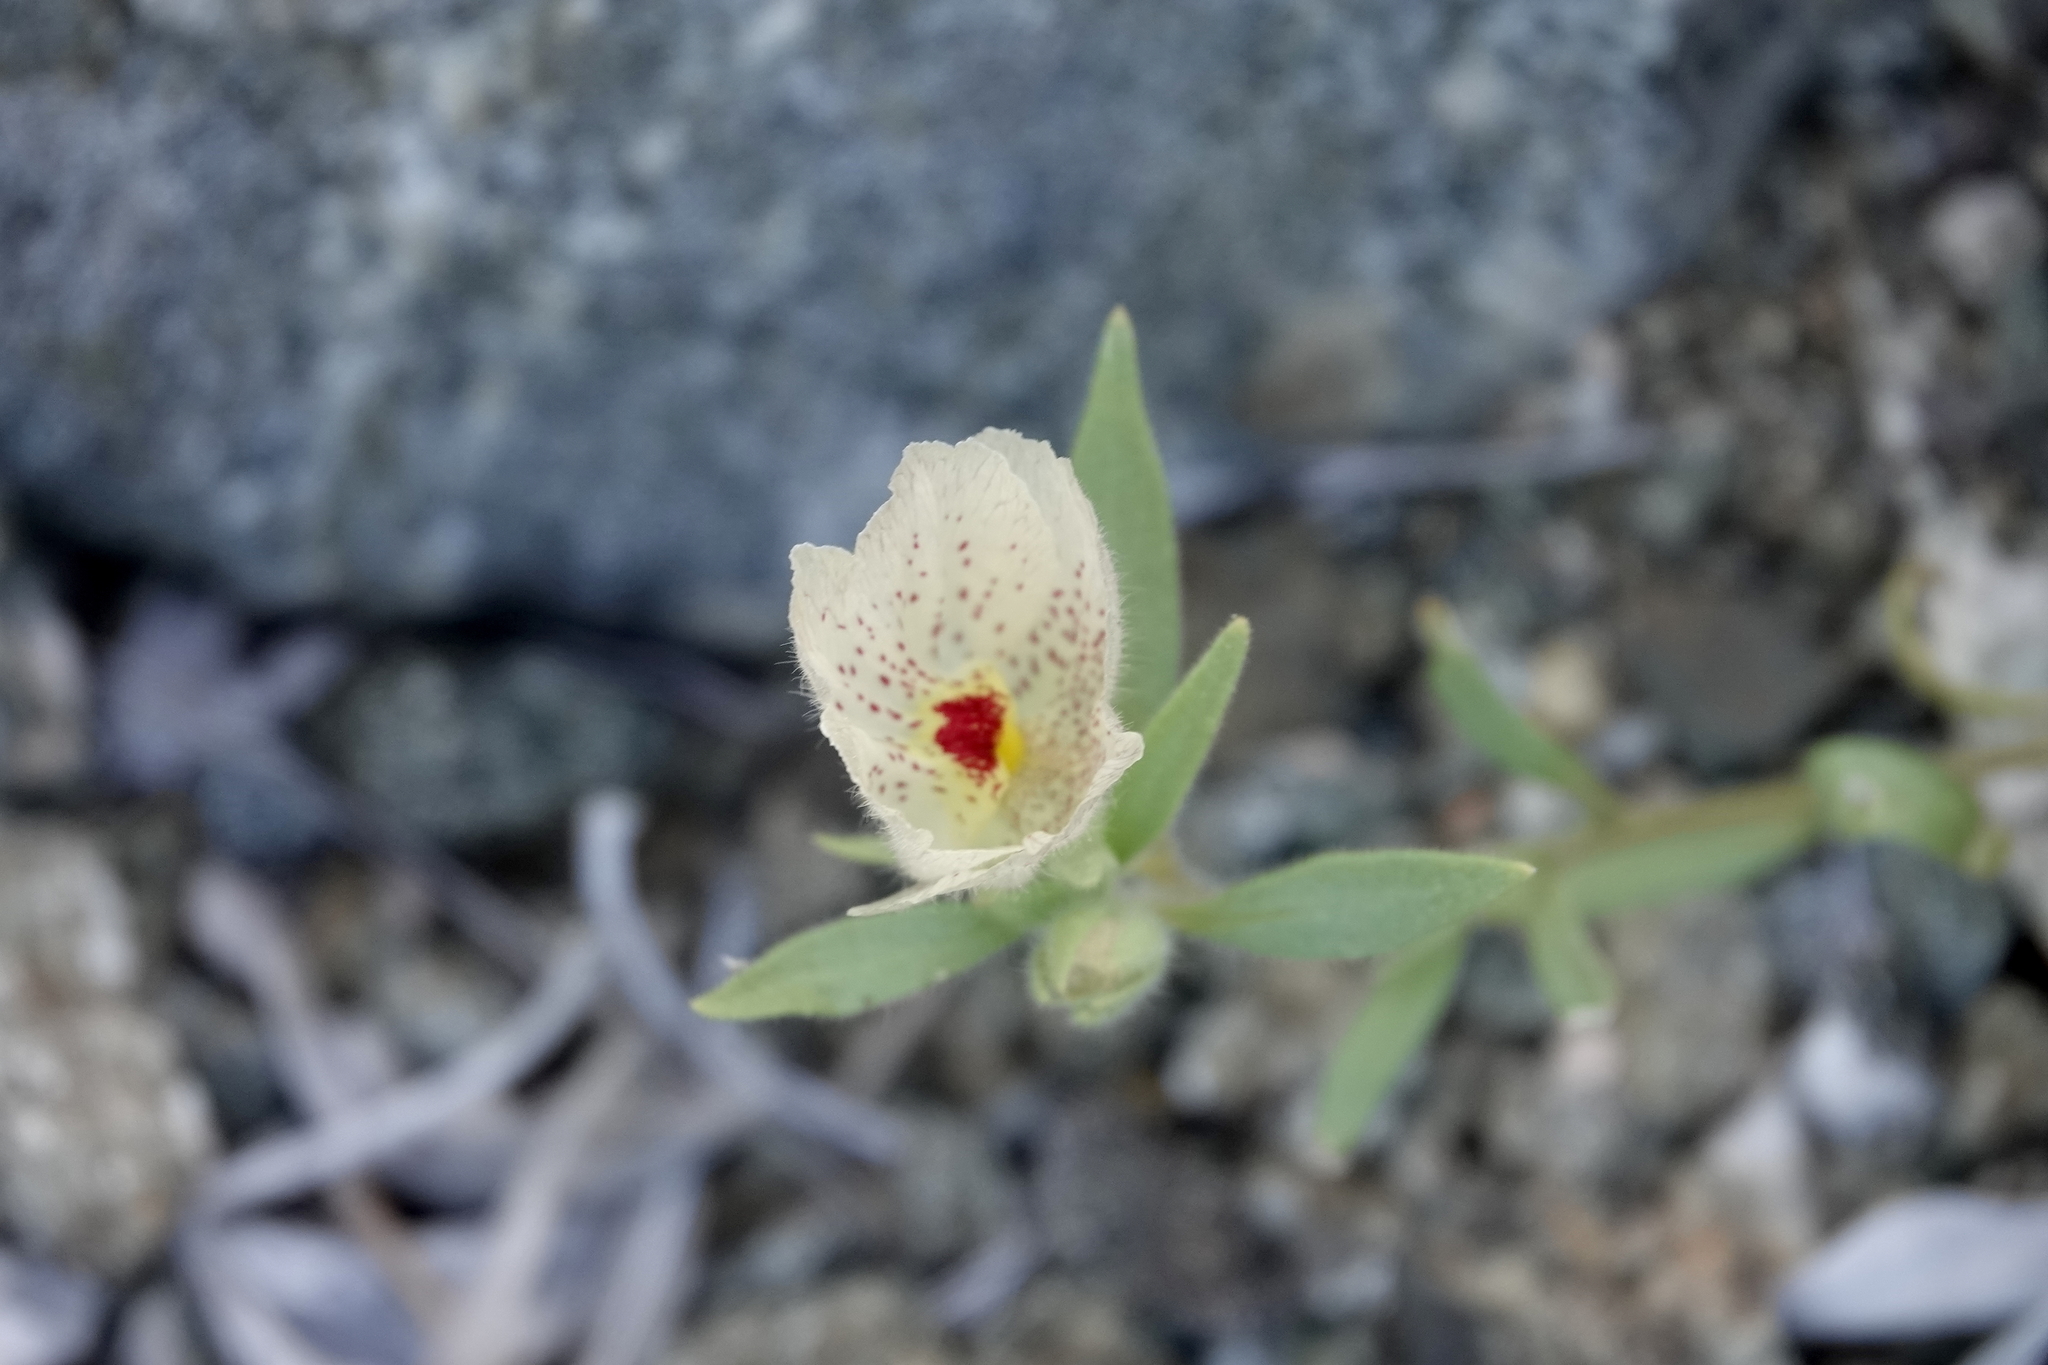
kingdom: Plantae
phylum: Tracheophyta
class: Magnoliopsida
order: Lamiales
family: Plantaginaceae
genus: Mohavea
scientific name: Mohavea confertiflora
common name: Ghost flower
